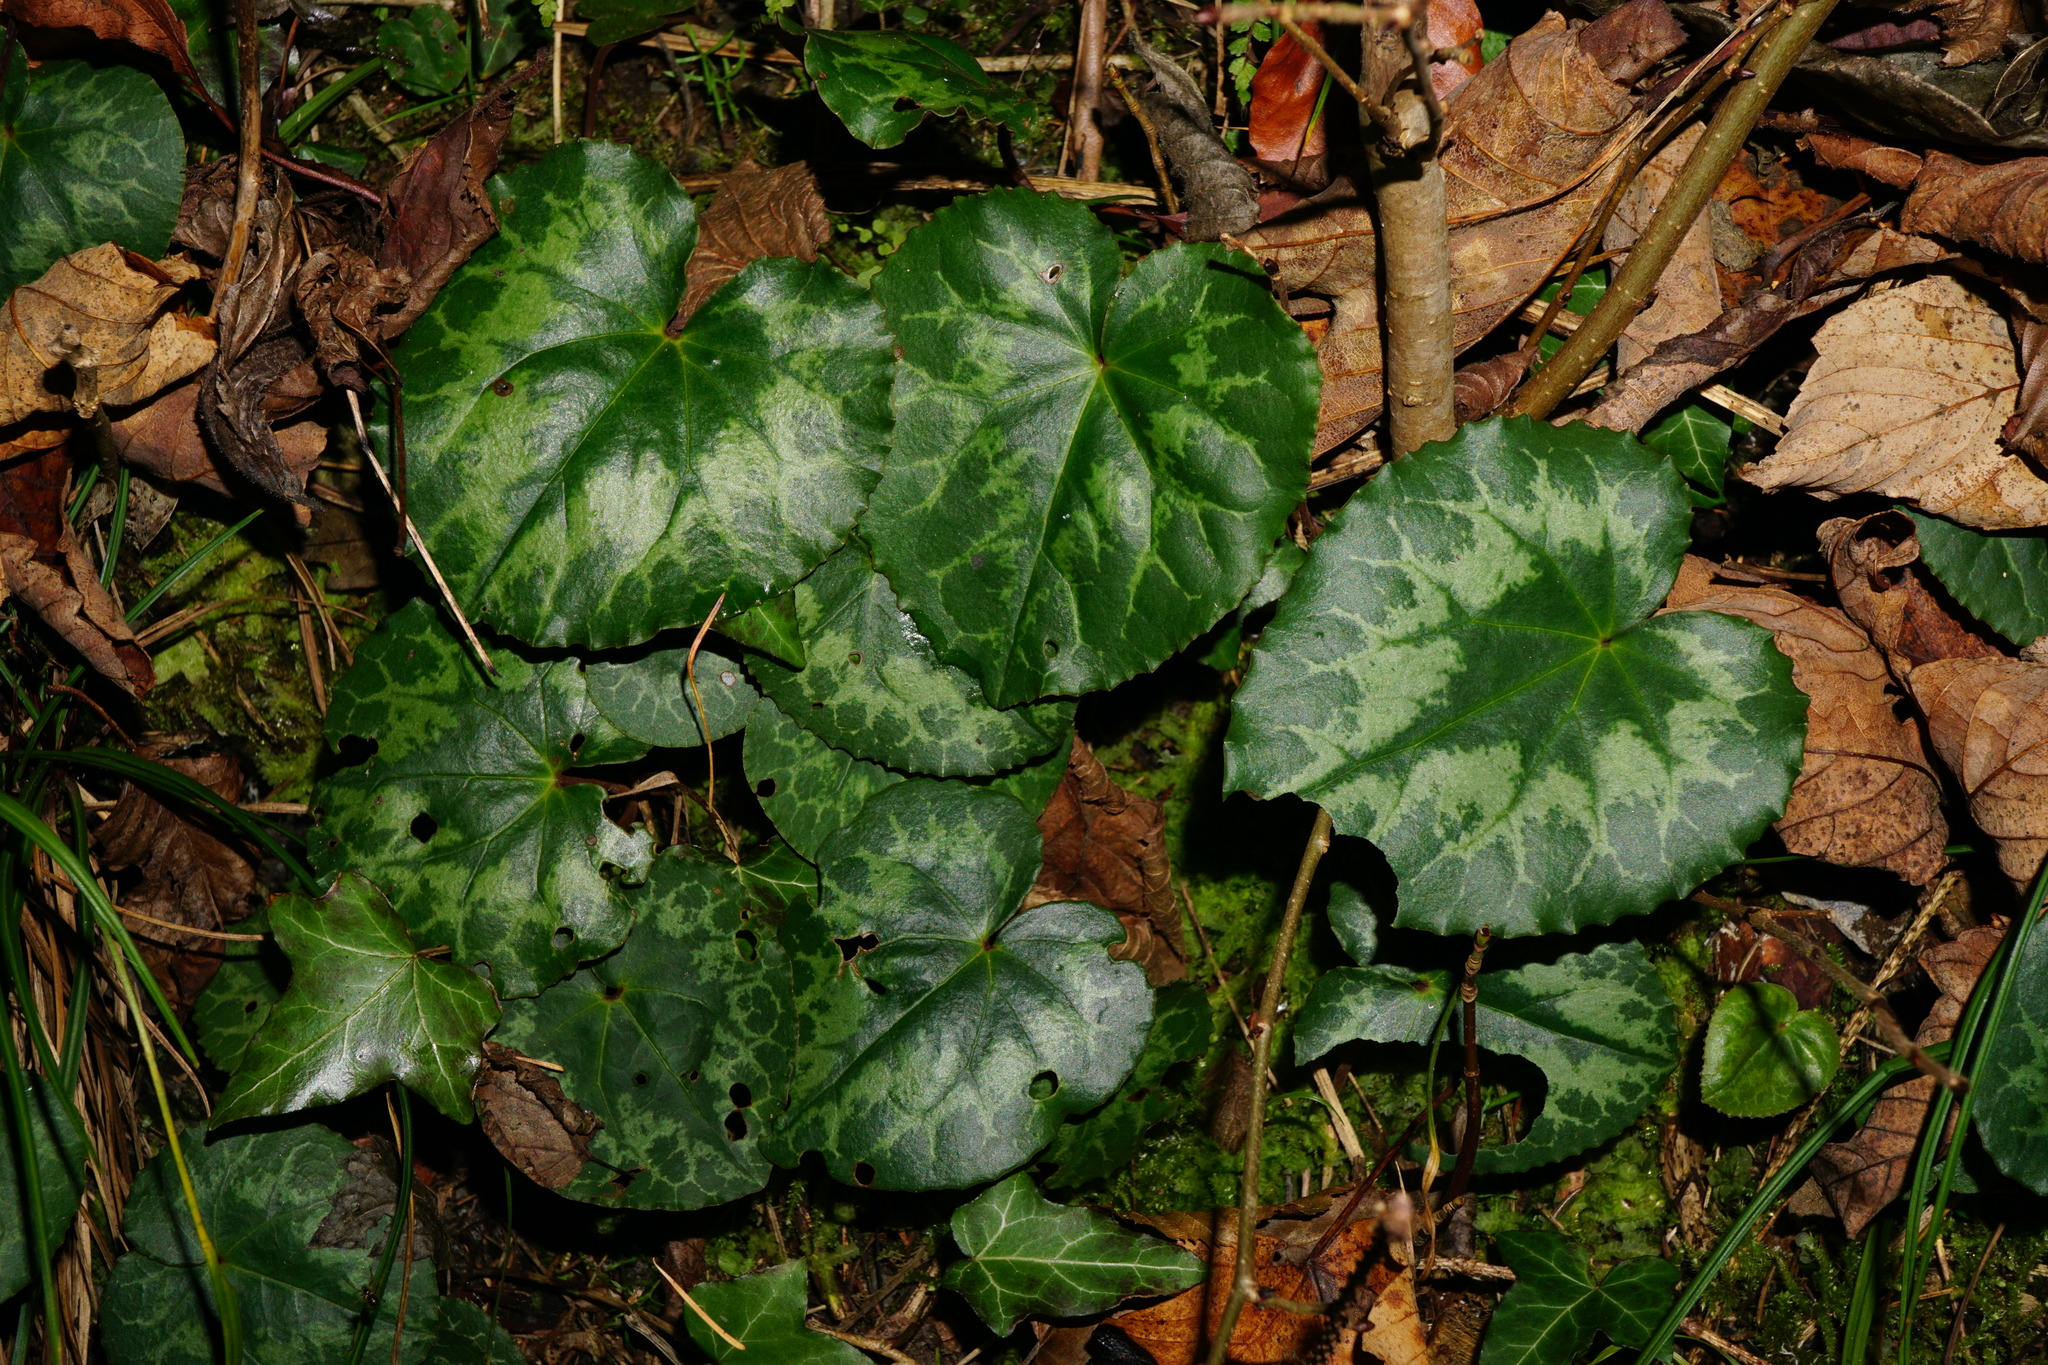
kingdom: Plantae
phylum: Tracheophyta
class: Magnoliopsida
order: Ericales
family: Primulaceae
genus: Cyclamen
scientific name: Cyclamen purpurascens
